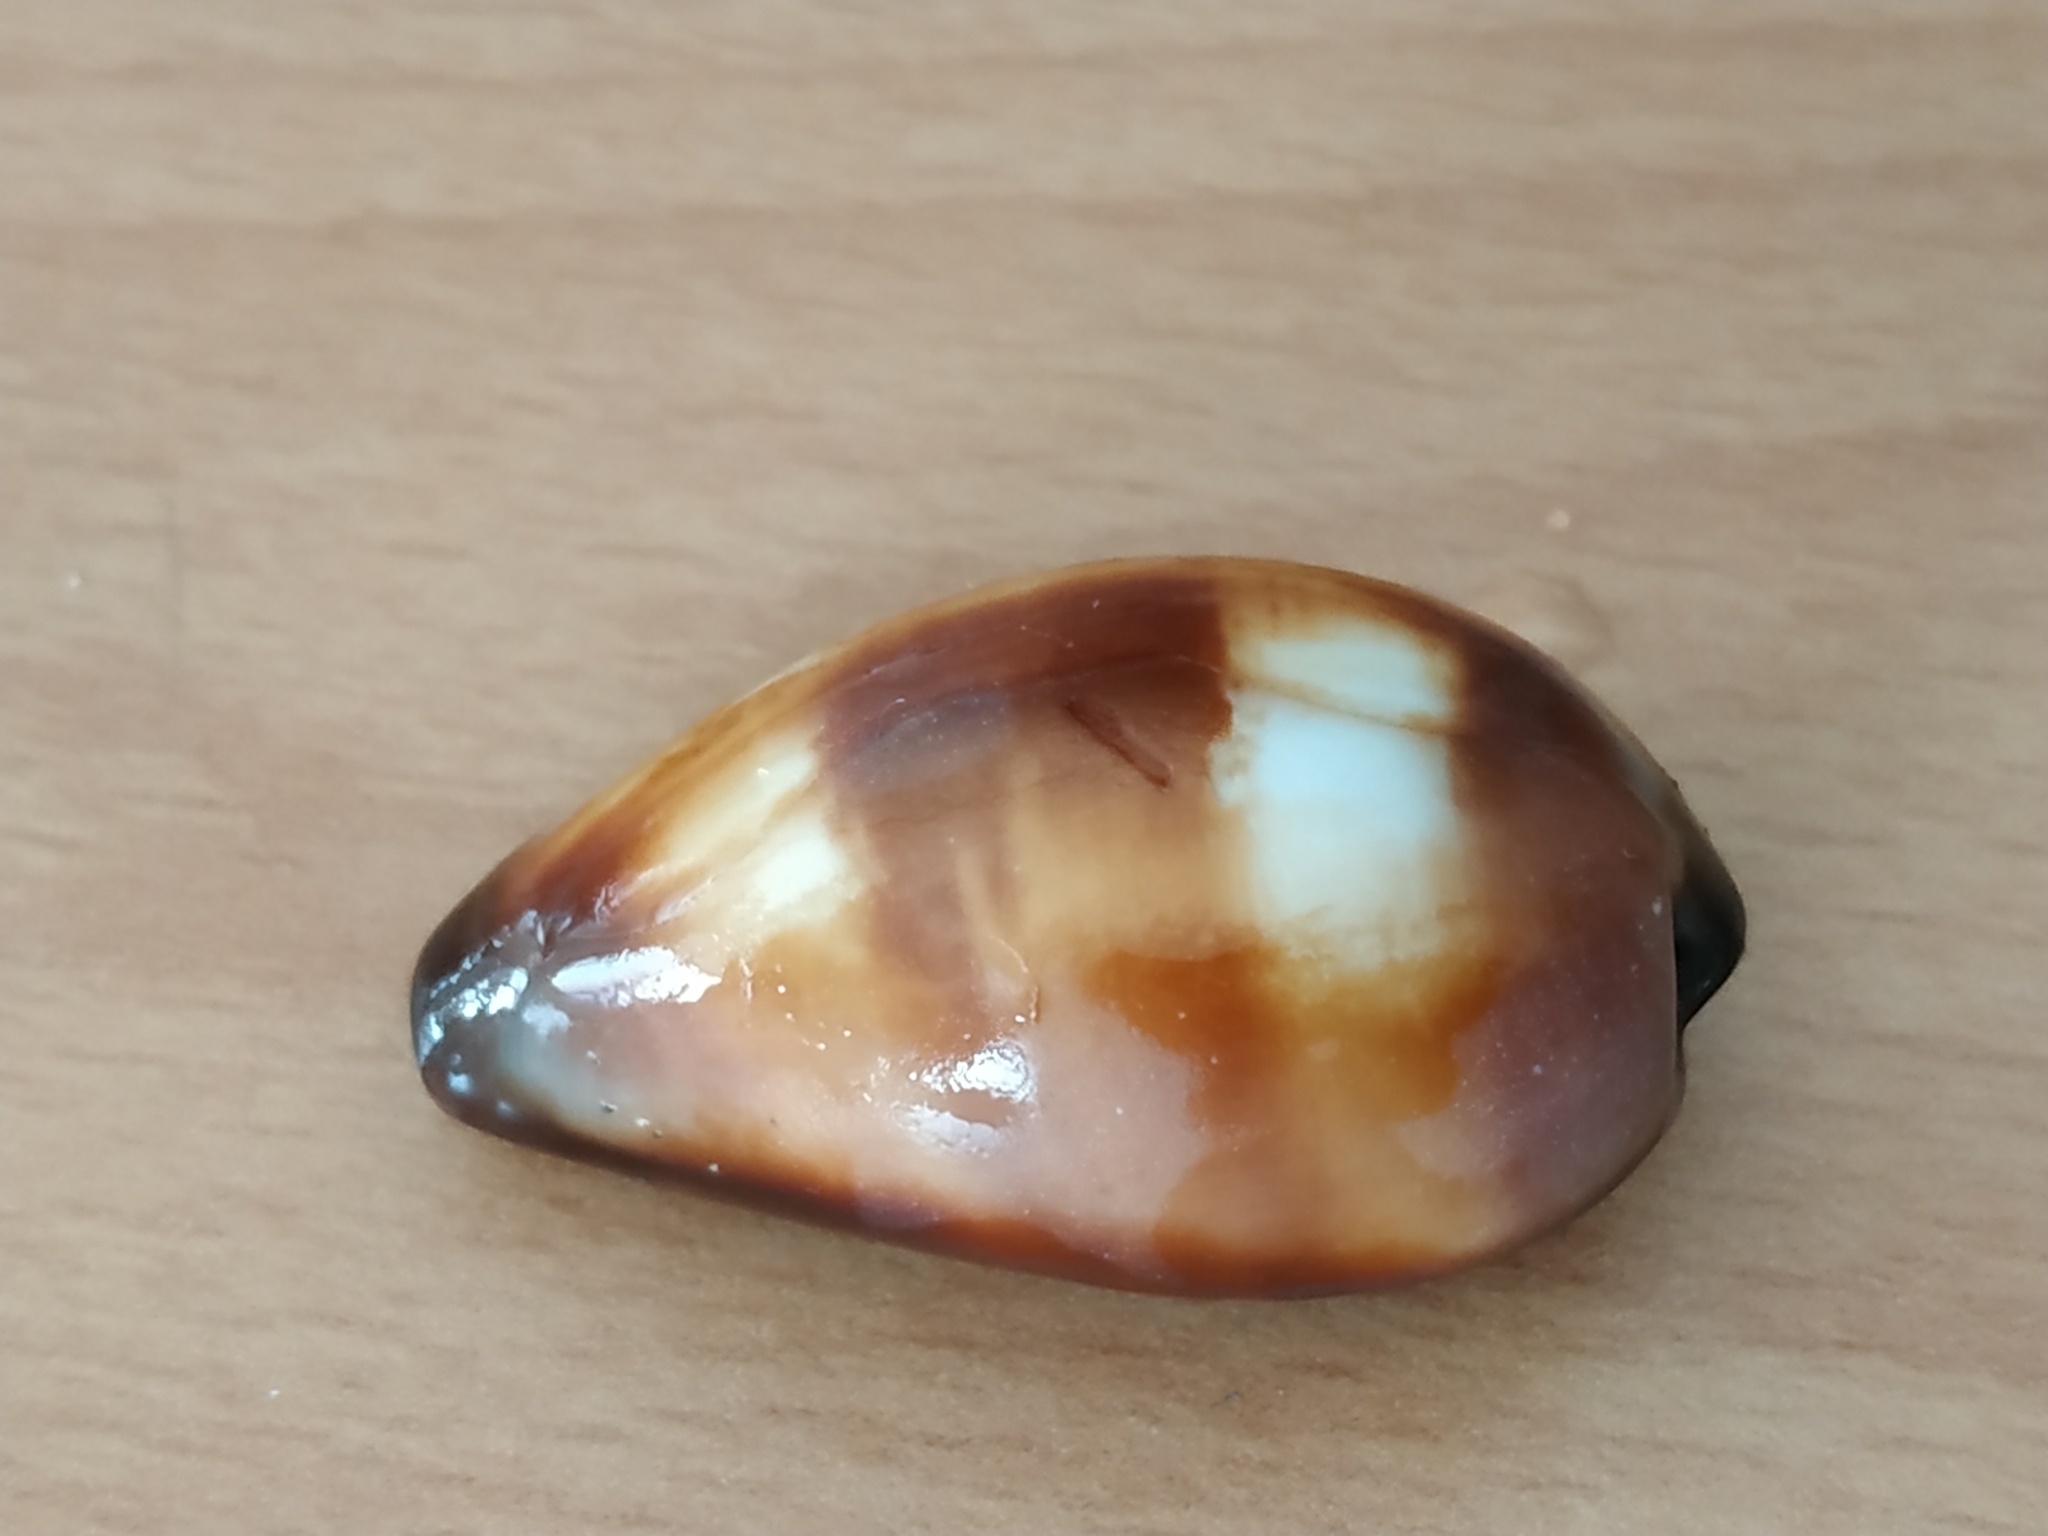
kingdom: Animalia
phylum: Mollusca
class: Gastropoda
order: Littorinimorpha
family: Cypraeidae
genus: Erronea
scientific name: Erronea onyx
